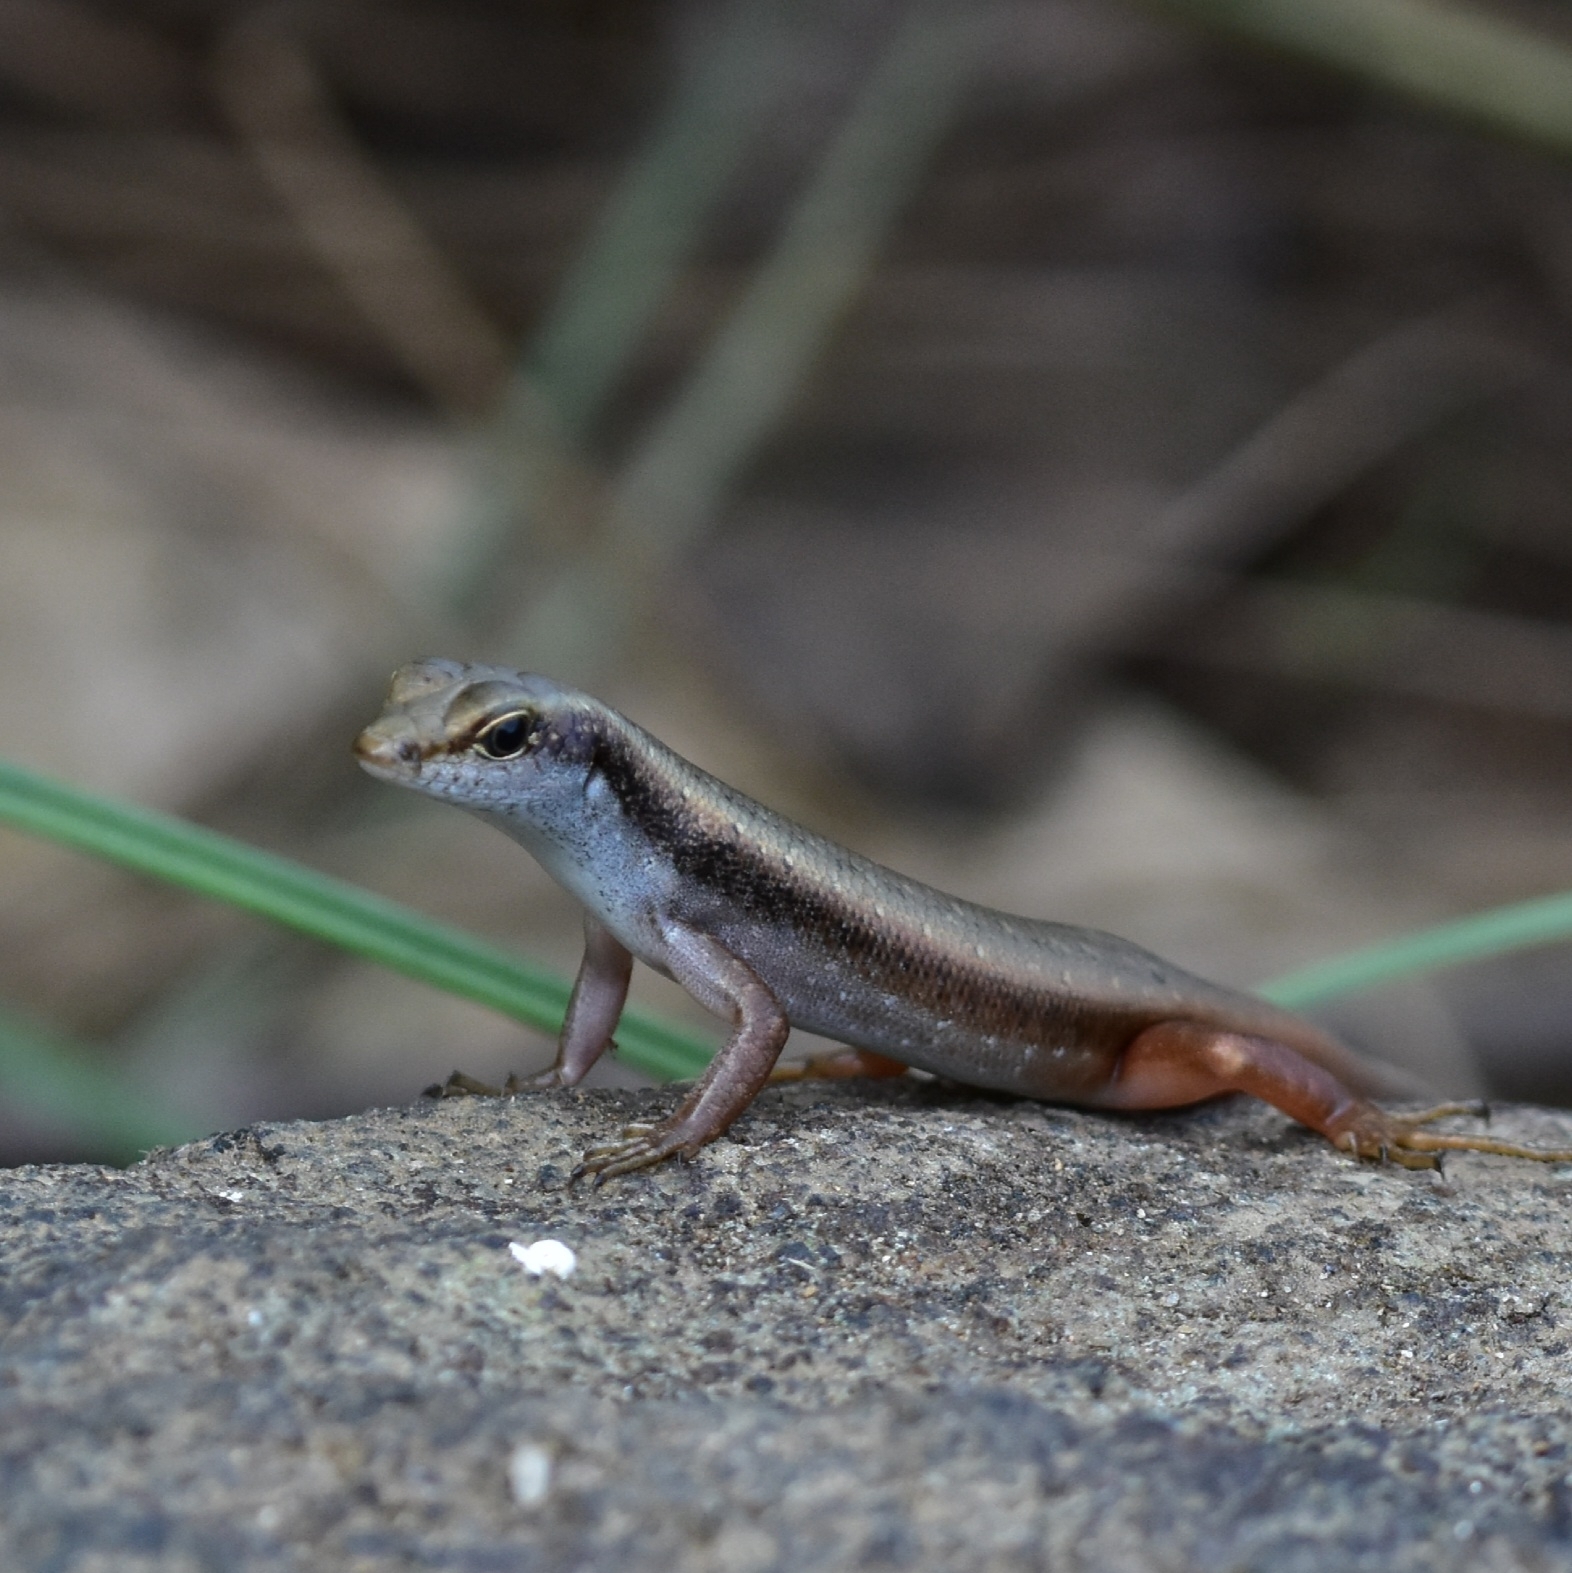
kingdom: Animalia
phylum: Chordata
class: Squamata
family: Scincidae
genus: Sphenomorphus
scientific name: Sphenomorphus dussumieri
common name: Dussumier's forest skink
